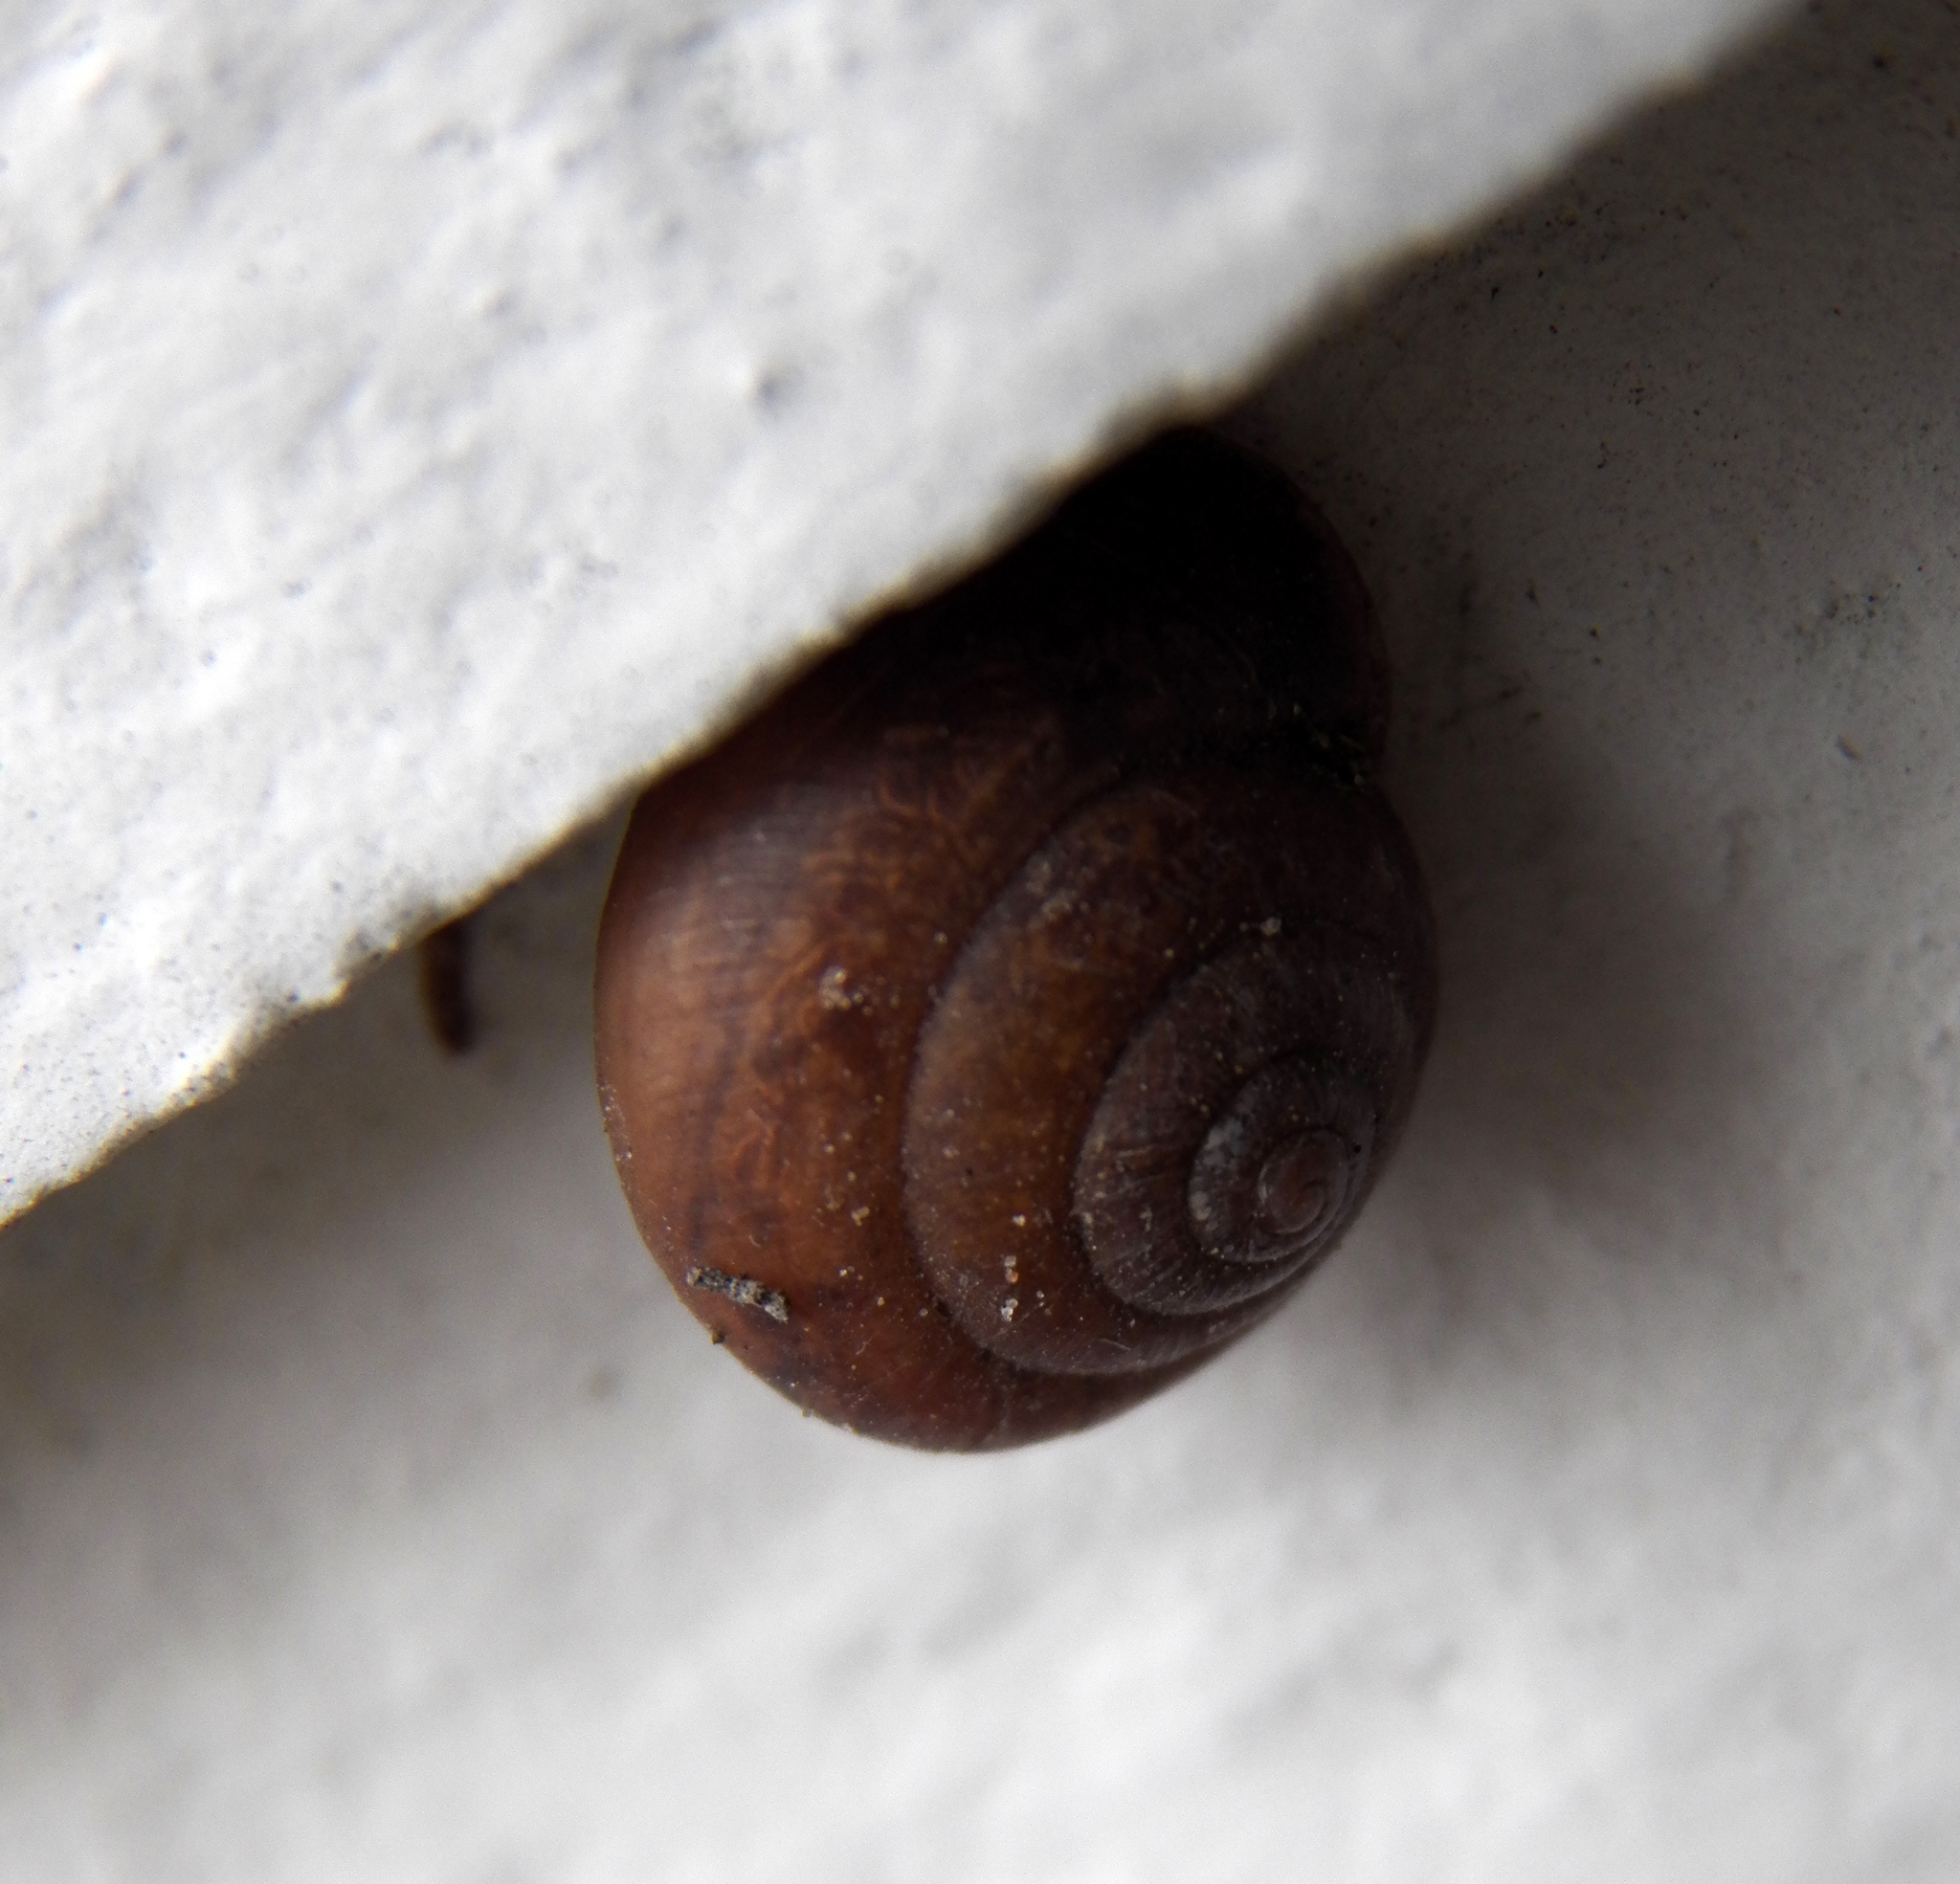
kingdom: Animalia
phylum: Mollusca
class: Gastropoda
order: Stylommatophora
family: Camaenidae
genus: Bradybaena
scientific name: Bradybaena similaris
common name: Asian trampsnail
